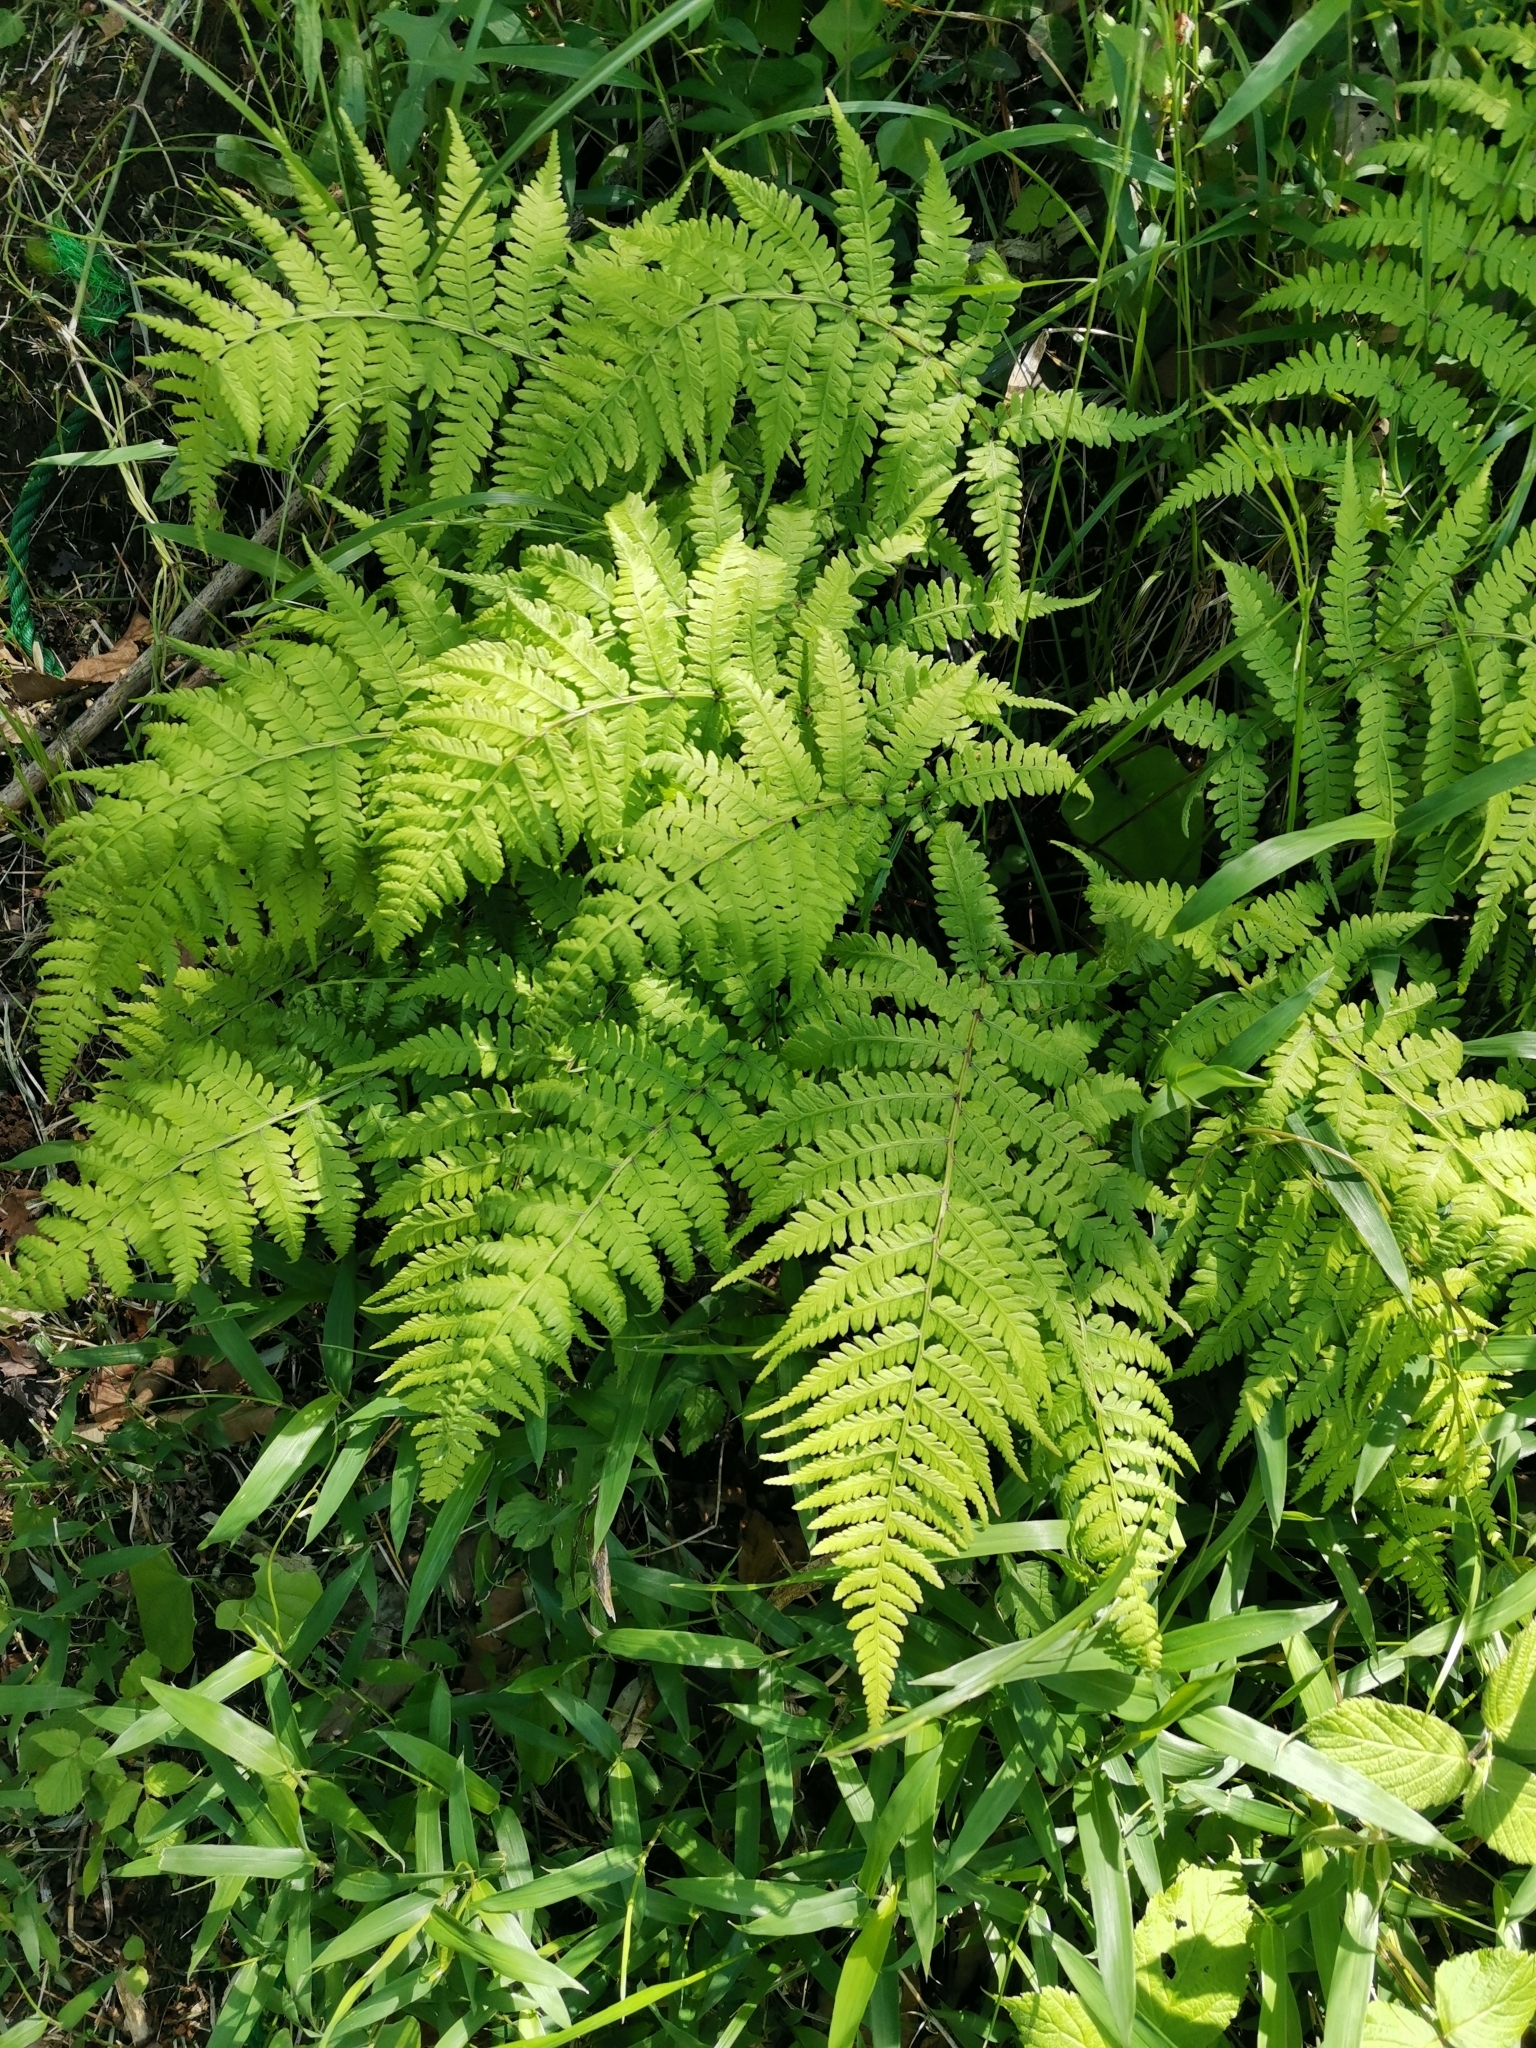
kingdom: Plantae
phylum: Tracheophyta
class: Polypodiopsida
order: Polypodiales
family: Athyriaceae
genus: Athyrium
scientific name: Athyrium yokoscense
